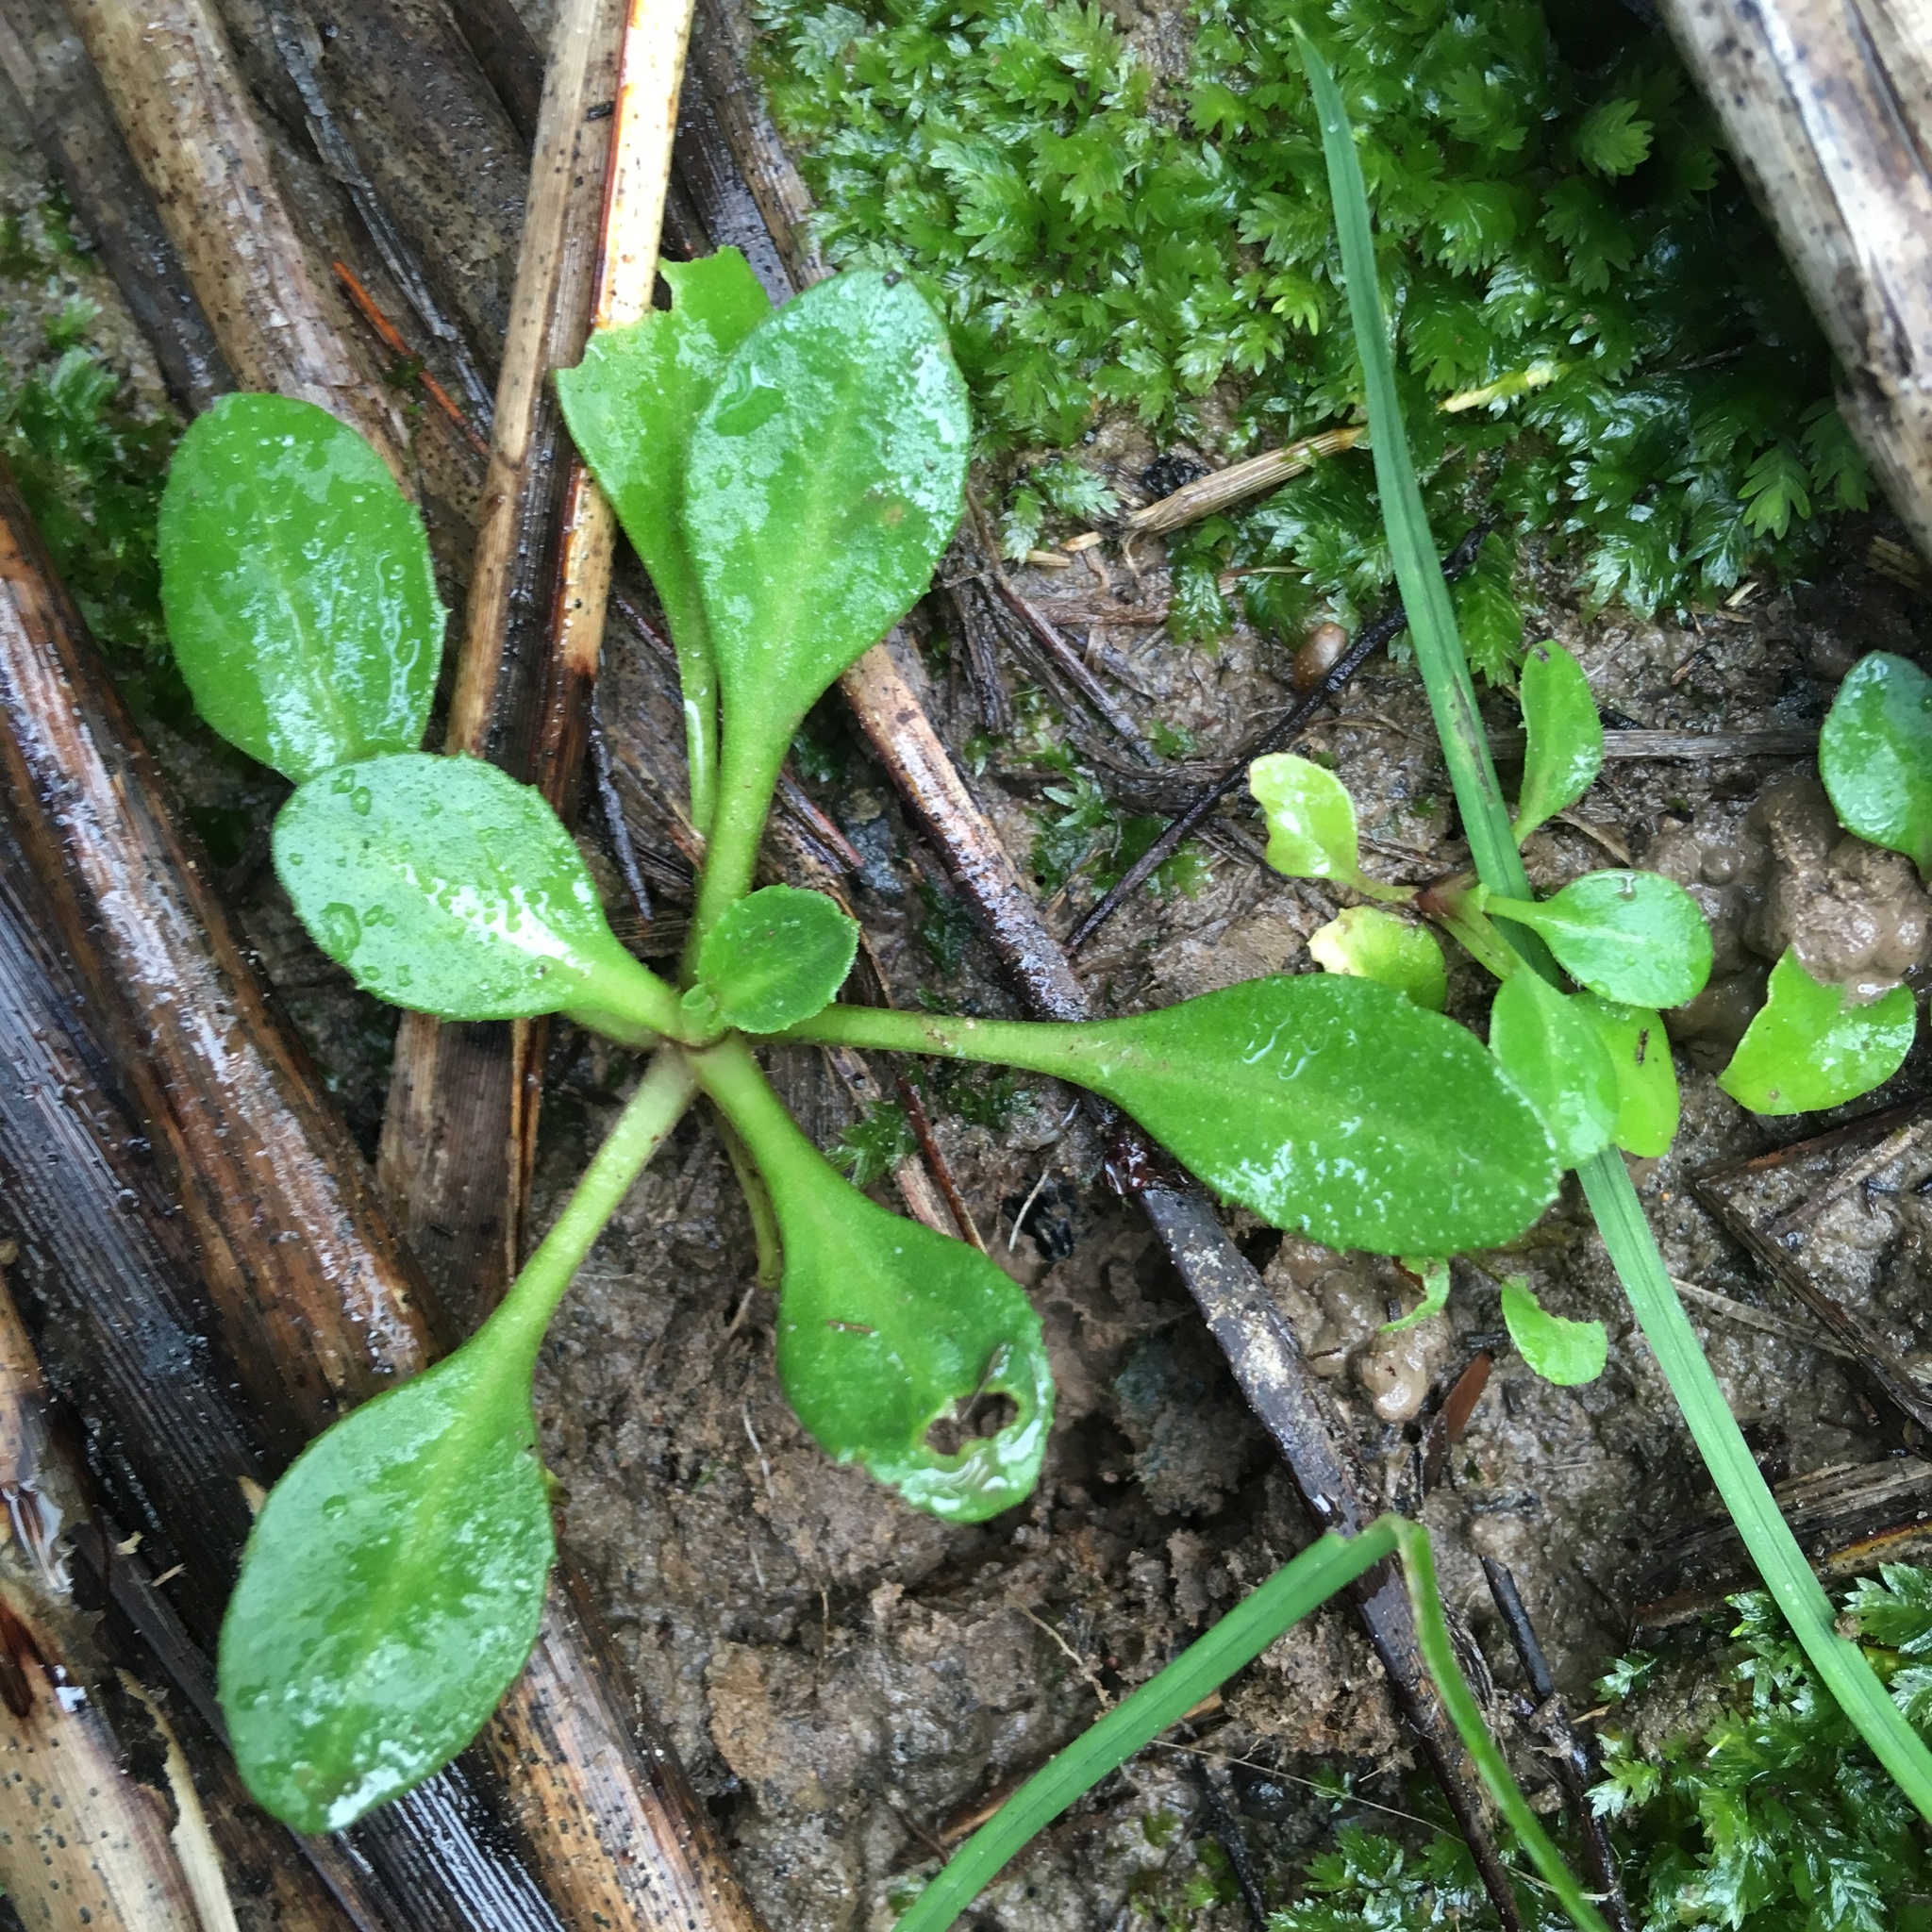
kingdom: Plantae
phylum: Tracheophyta
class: Magnoliopsida
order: Asterales
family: Asteraceae
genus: Bellis
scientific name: Bellis perennis
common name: Lawndaisy
